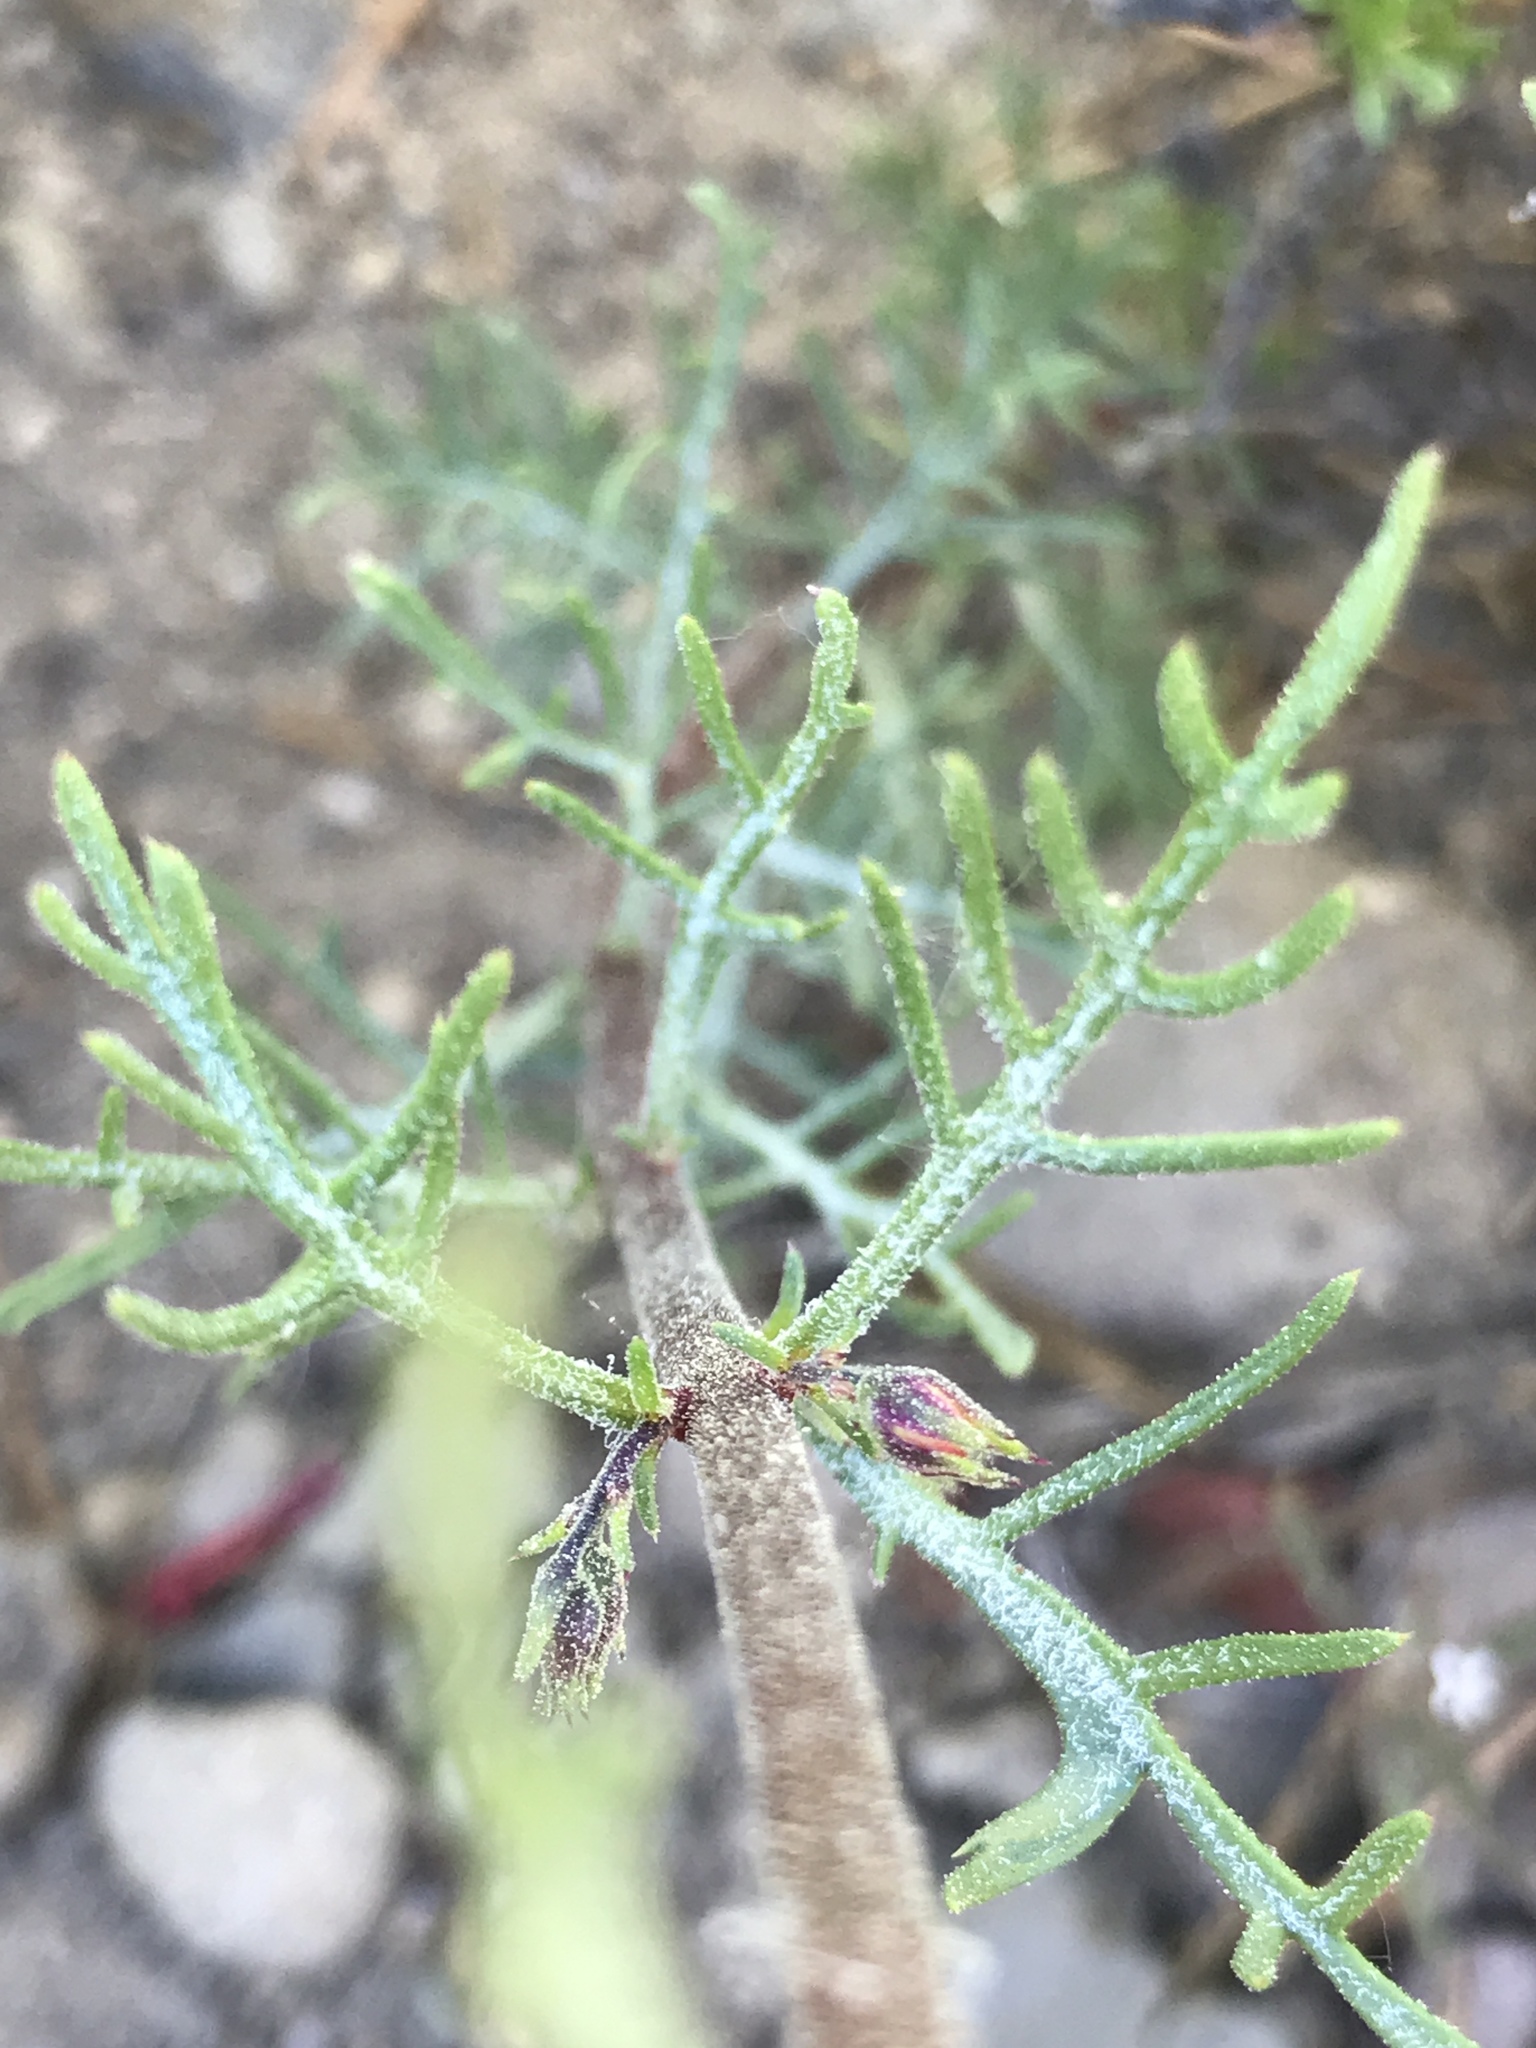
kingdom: Plantae
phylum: Tracheophyta
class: Magnoliopsida
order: Ericales
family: Polemoniaceae
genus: Ipomopsis
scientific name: Ipomopsis aggregata
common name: Scarlet gilia
